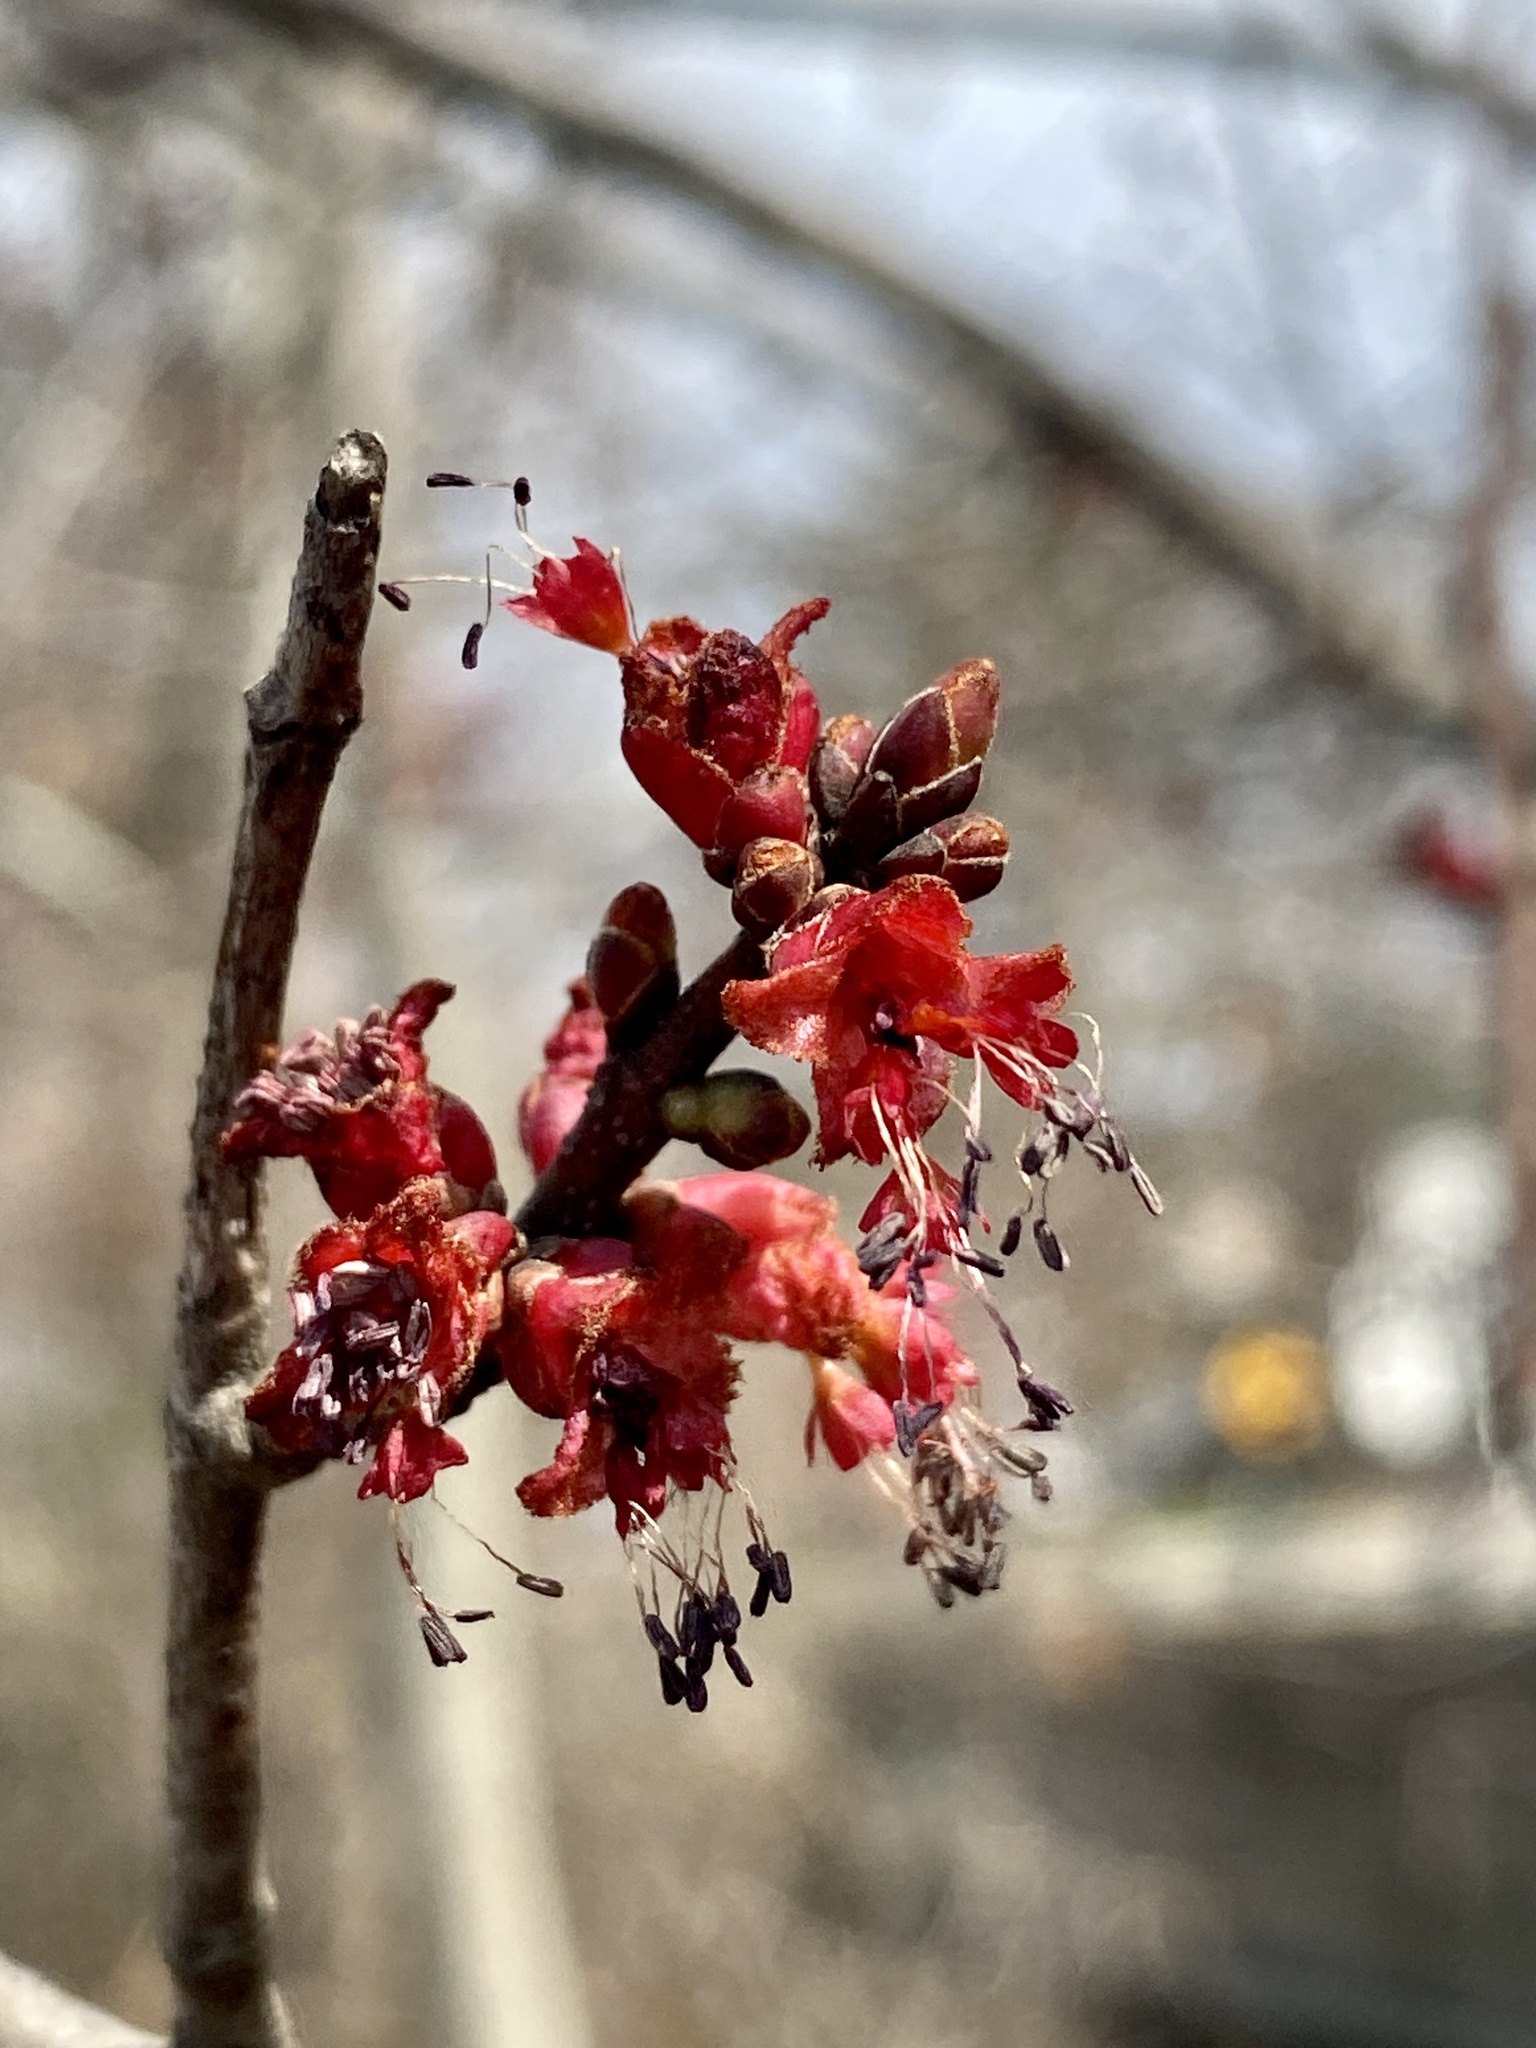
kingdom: Plantae
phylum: Tracheophyta
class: Magnoliopsida
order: Sapindales
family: Sapindaceae
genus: Acer
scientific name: Acer rubrum
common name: Red maple
